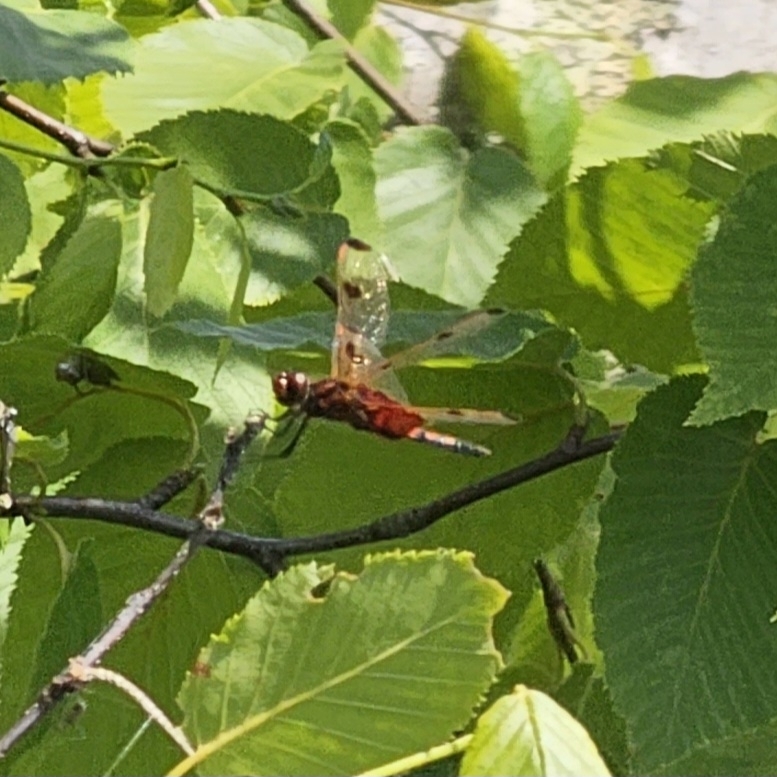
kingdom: Animalia
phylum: Arthropoda
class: Insecta
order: Odonata
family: Libellulidae
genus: Celithemis
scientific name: Celithemis elisa
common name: Calico pennant
